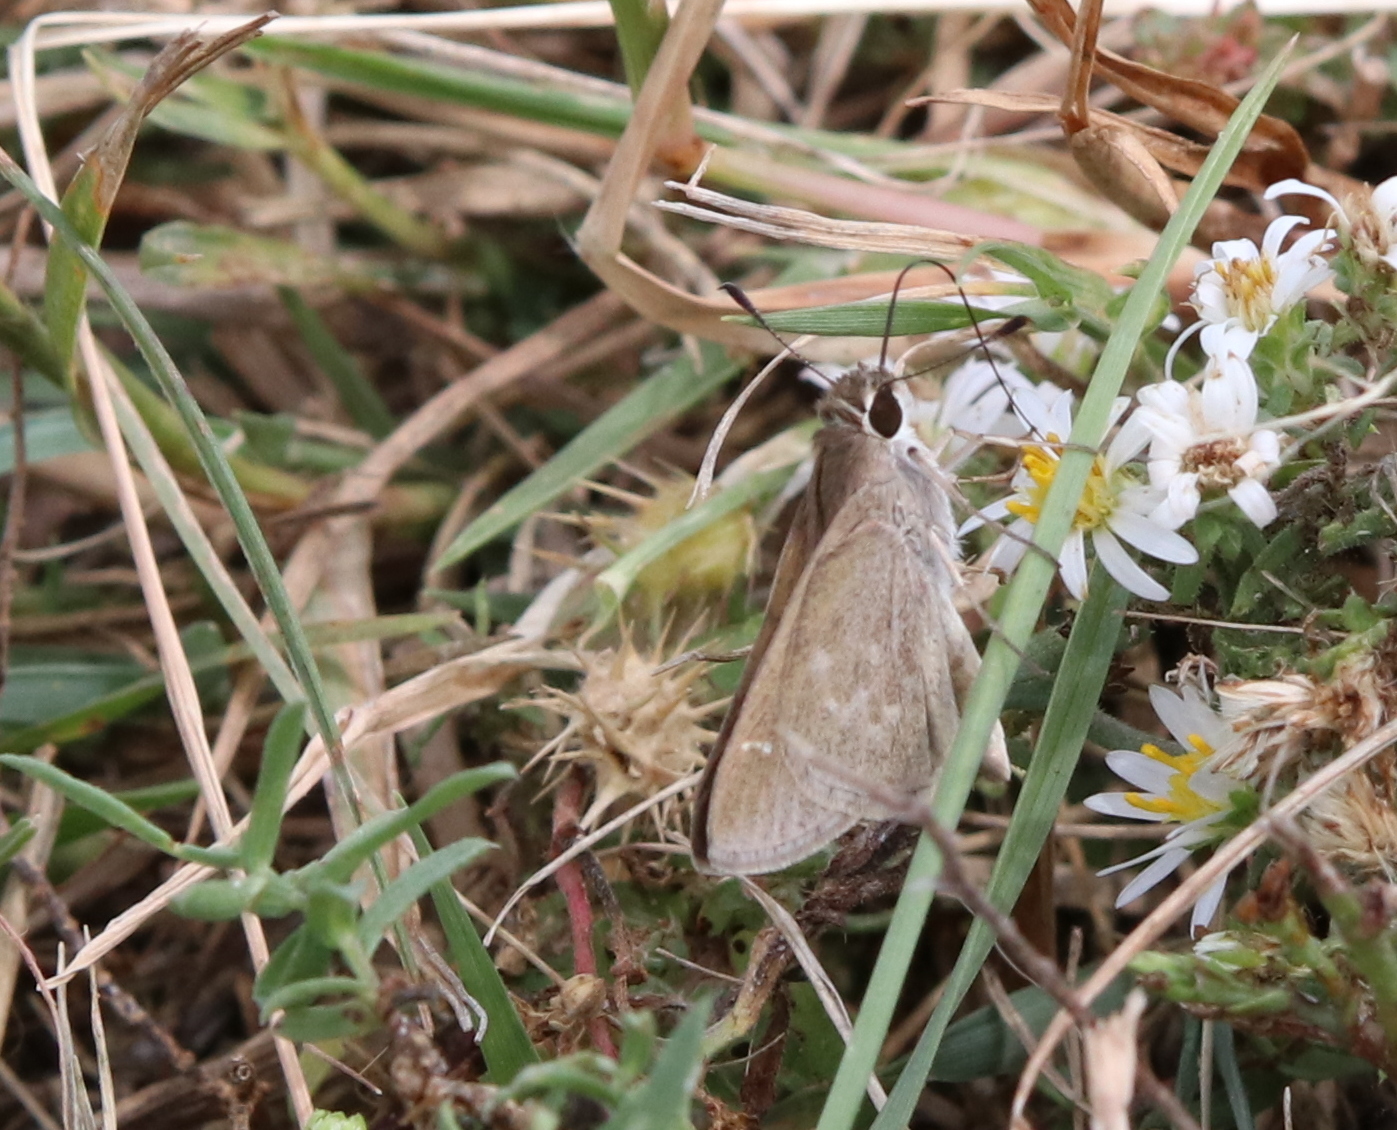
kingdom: Animalia
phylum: Arthropoda
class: Insecta
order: Lepidoptera
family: Hesperiidae
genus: Lerodea
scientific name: Lerodea eufala
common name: Eufala skipper
